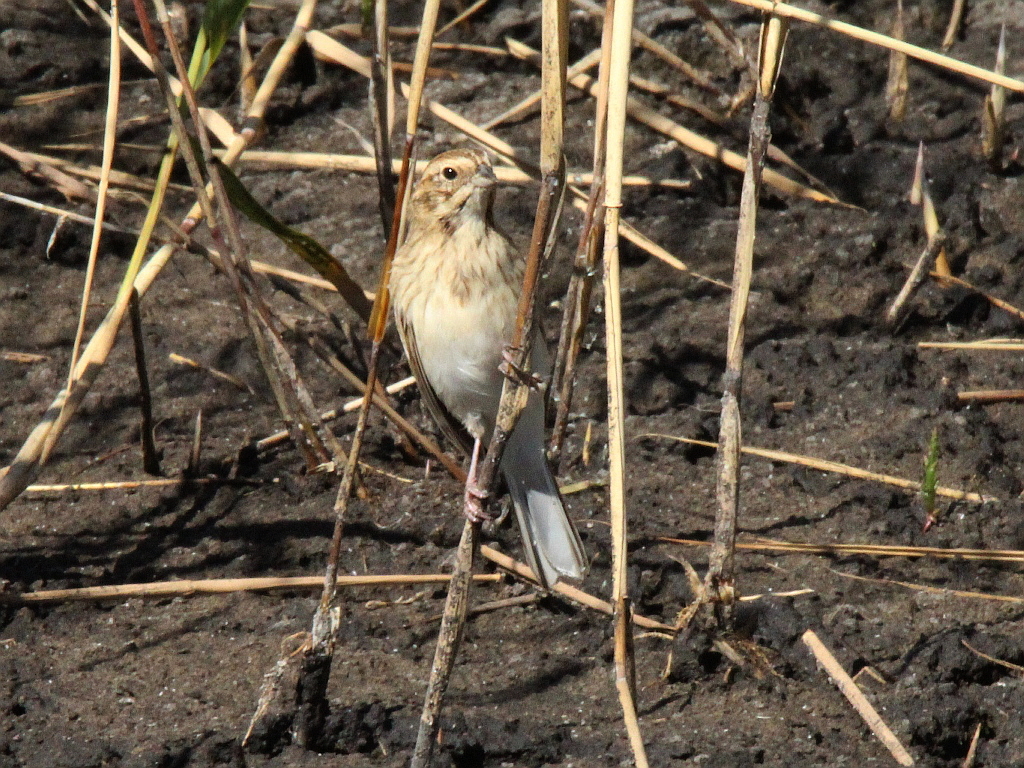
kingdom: Animalia
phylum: Chordata
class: Aves
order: Passeriformes
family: Emberizidae
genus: Emberiza
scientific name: Emberiza schoeniclus
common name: Reed bunting
